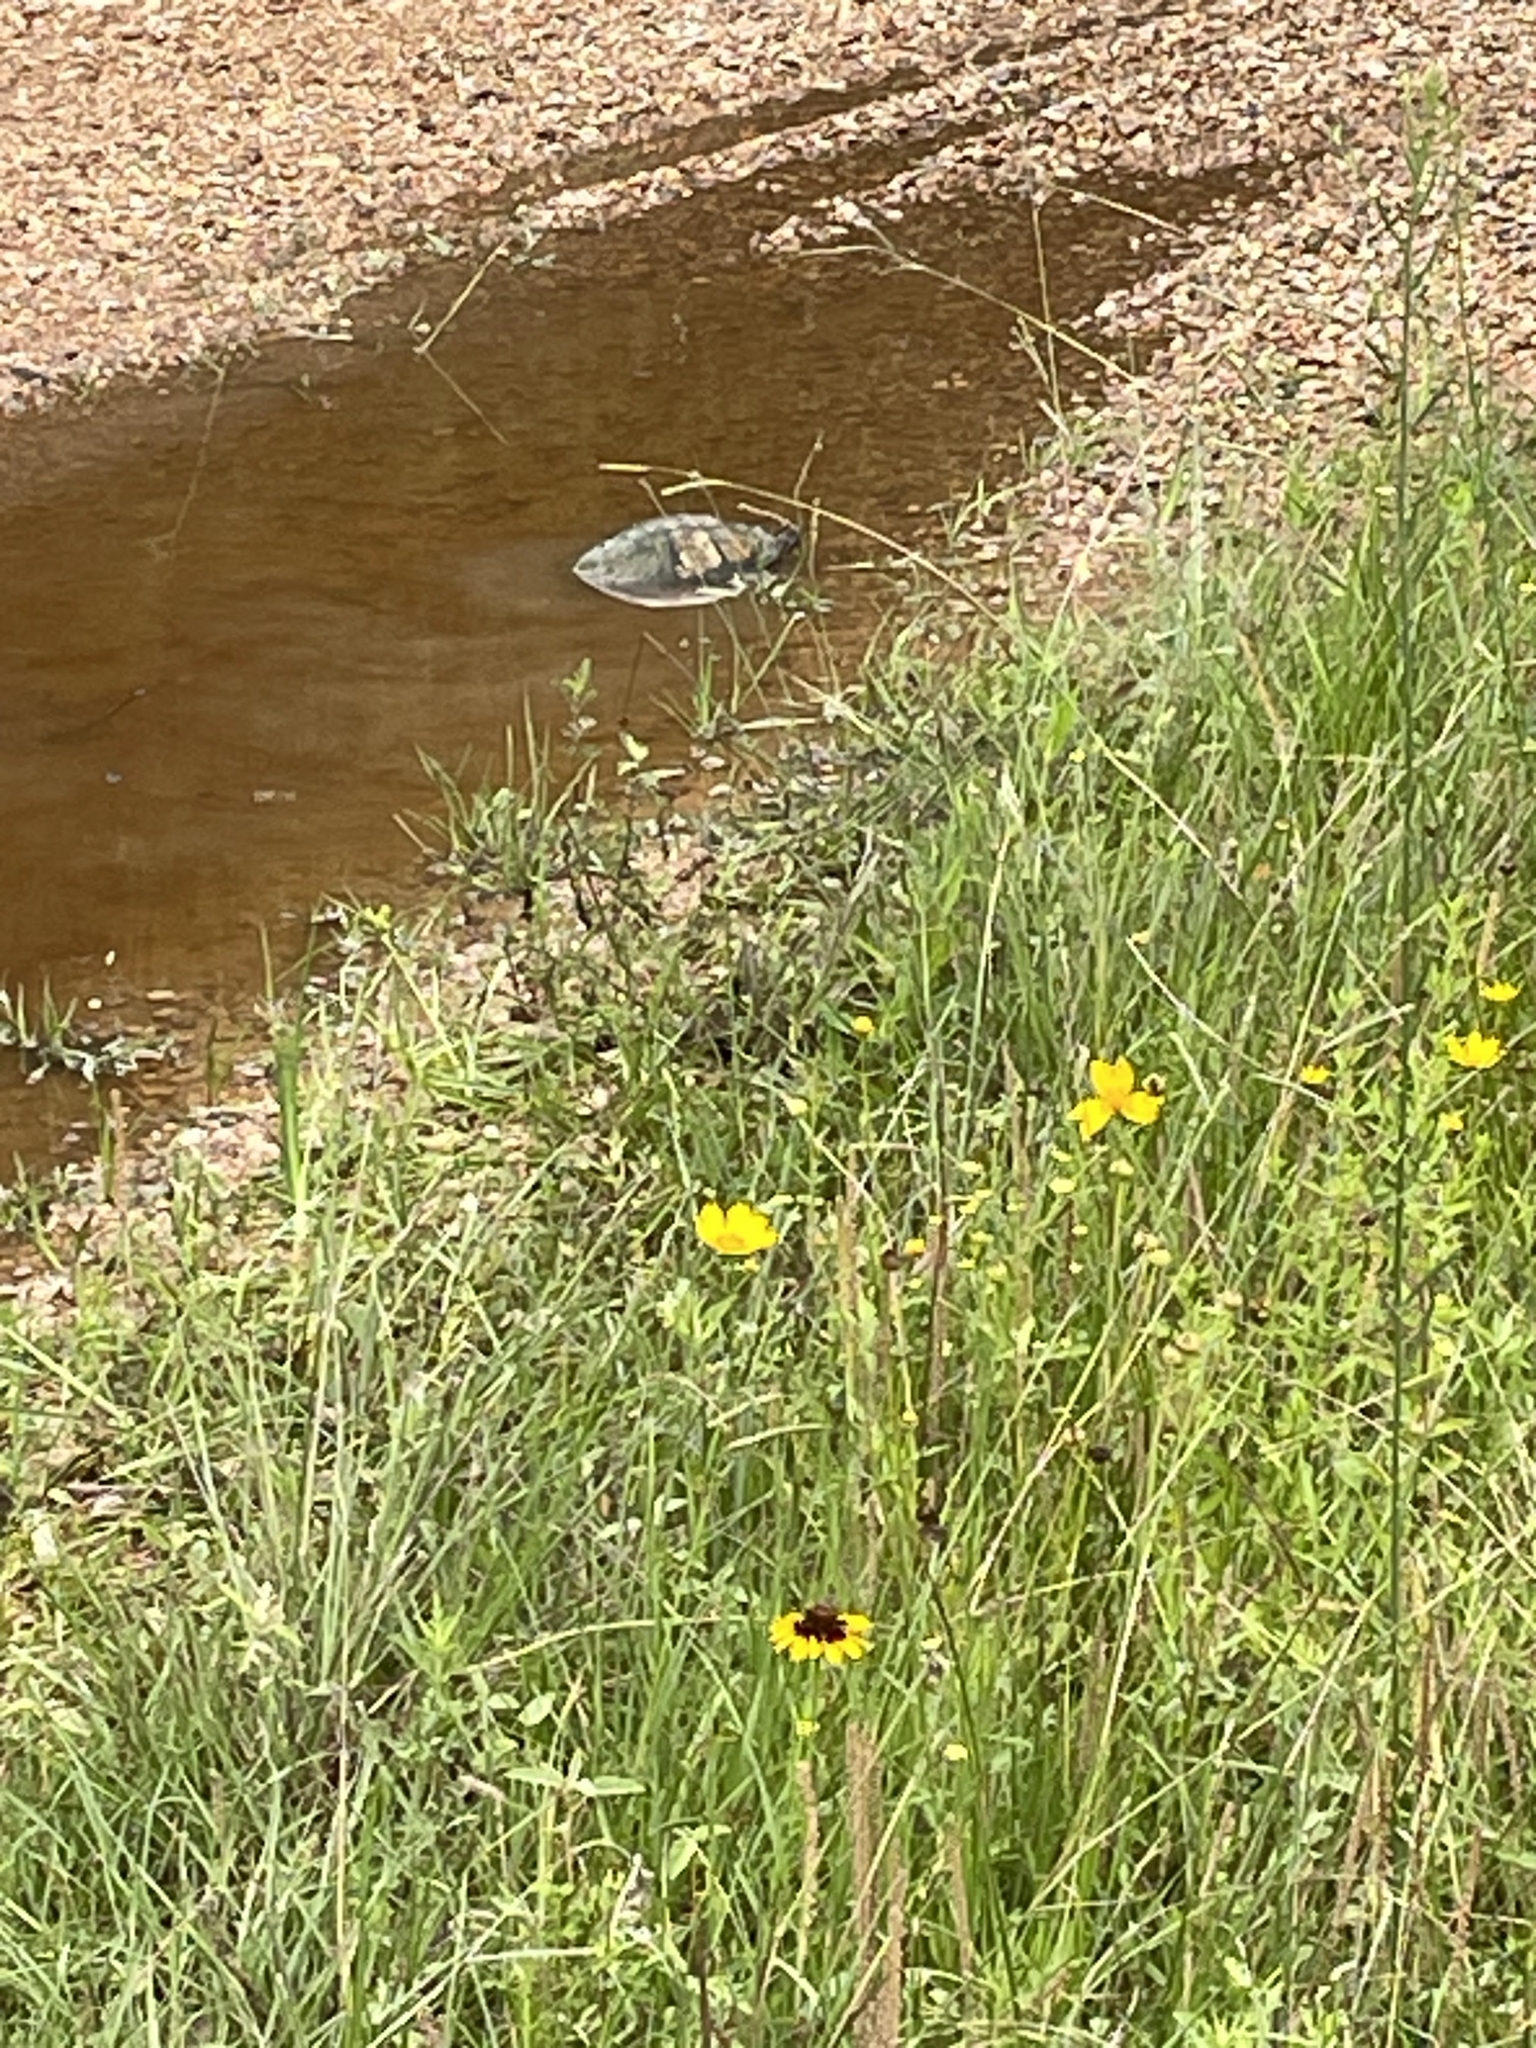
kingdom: Animalia
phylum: Chordata
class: Testudines
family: Emydidae
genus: Trachemys
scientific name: Trachemys scripta
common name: Slider
